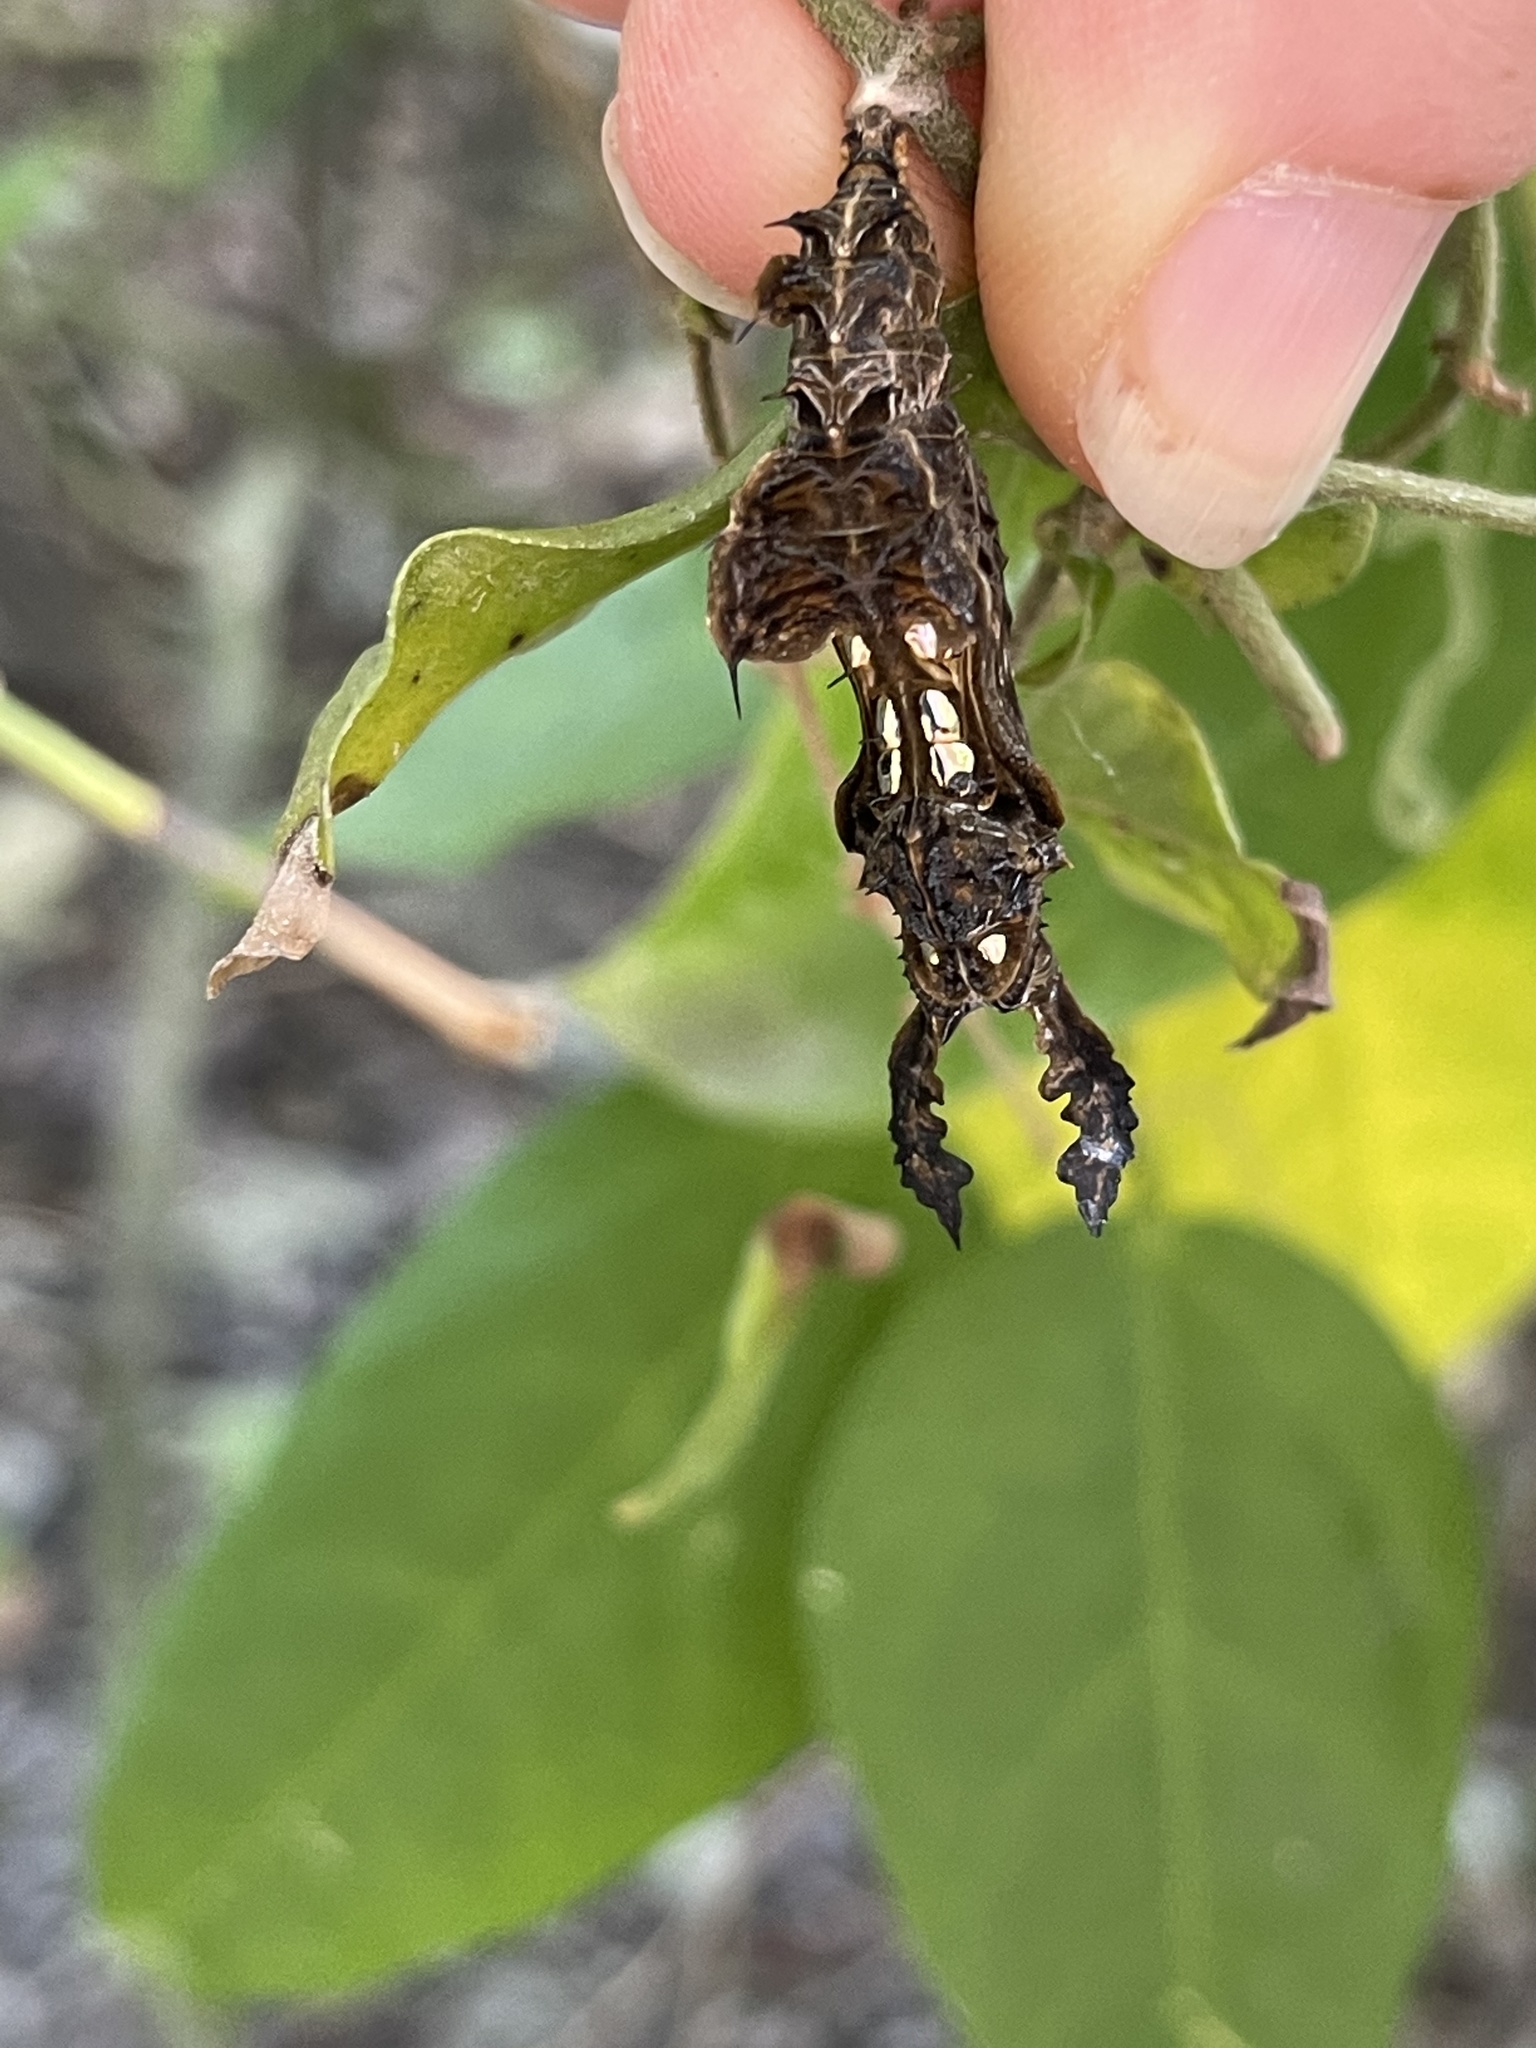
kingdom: Animalia
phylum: Arthropoda
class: Insecta
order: Lepidoptera
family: Nymphalidae
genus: Heliconius
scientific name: Heliconius charithonia
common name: Zebra long wing
